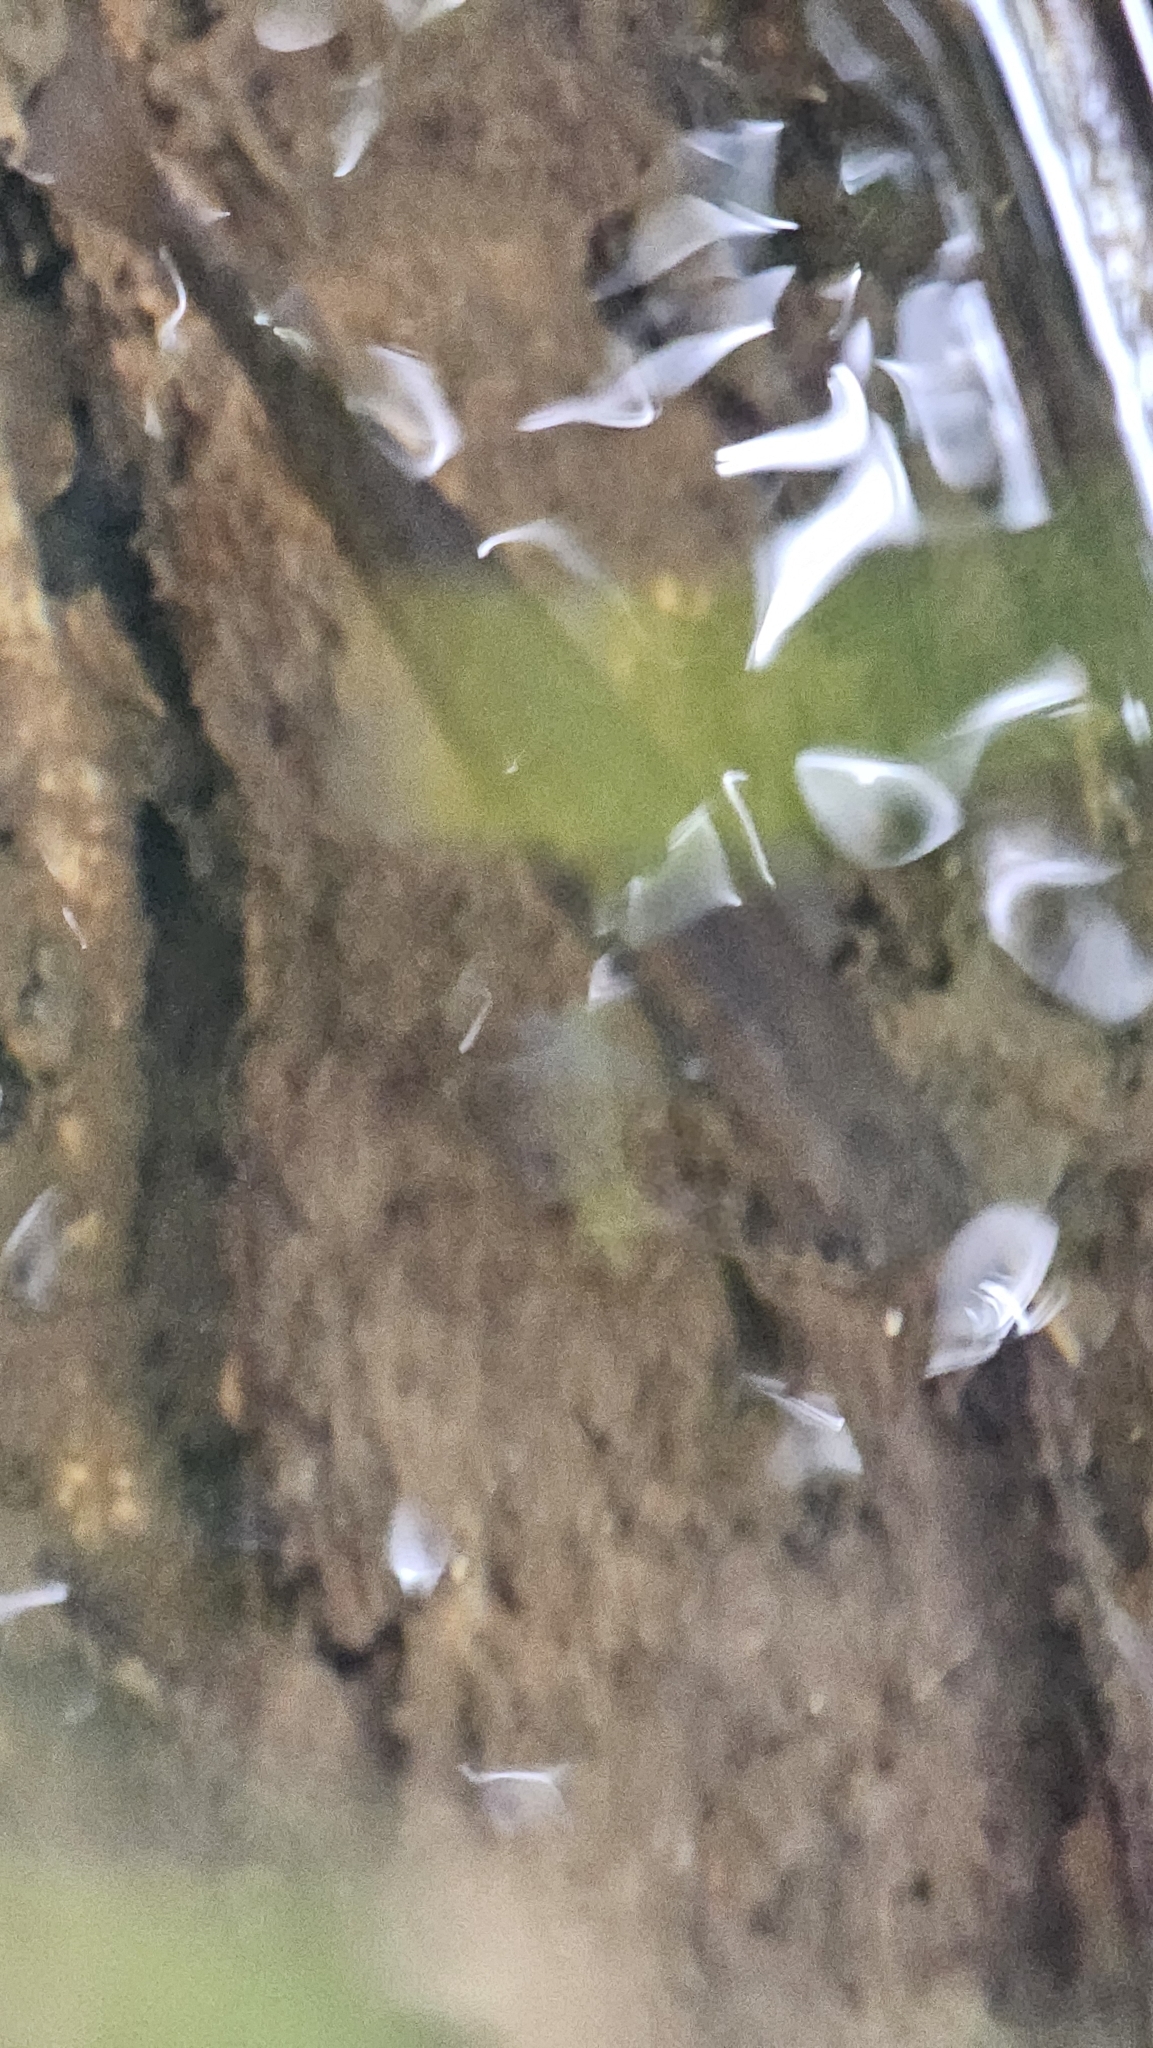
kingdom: Animalia
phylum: Chordata
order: Osmeriformes
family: Galaxiidae
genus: Galaxias
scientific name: Galaxias fasciatus
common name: Banded kokopu
